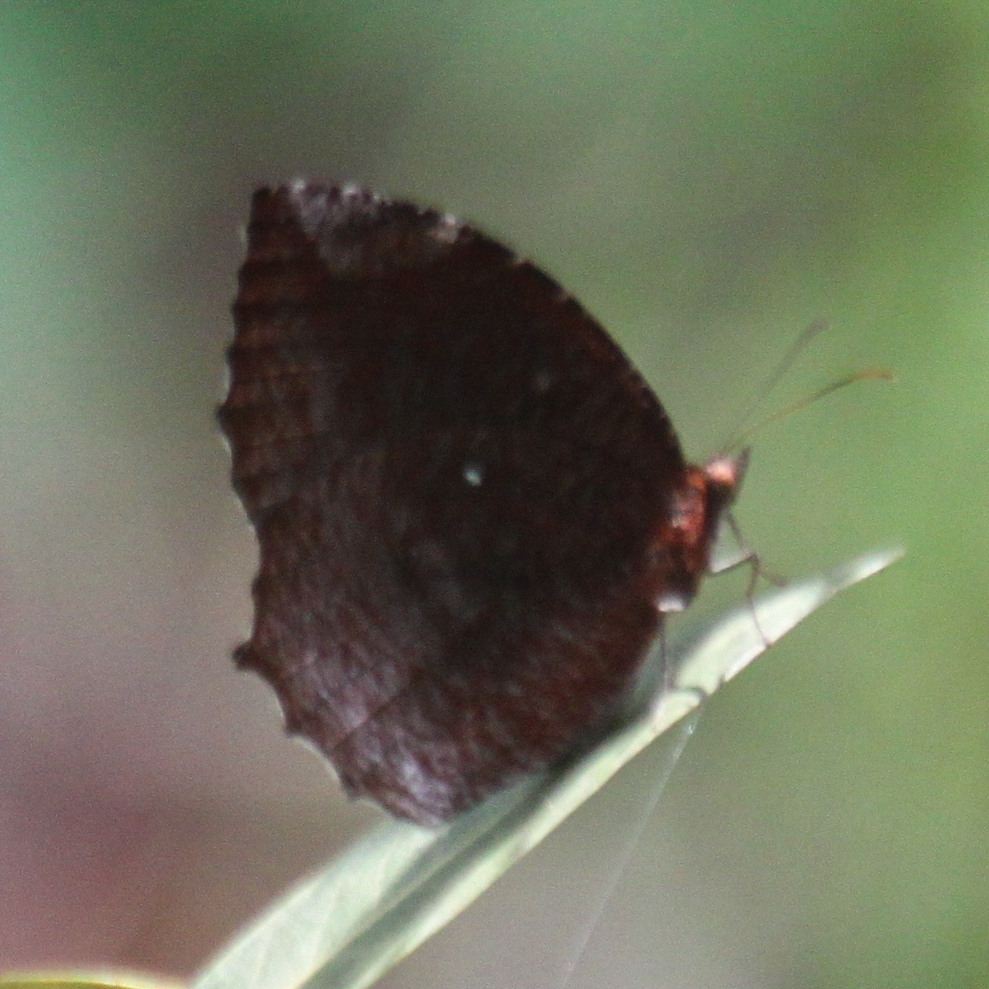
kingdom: Animalia
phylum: Arthropoda
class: Insecta
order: Lepidoptera
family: Nymphalidae
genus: Elymnias
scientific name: Elymnias hypermnestra
